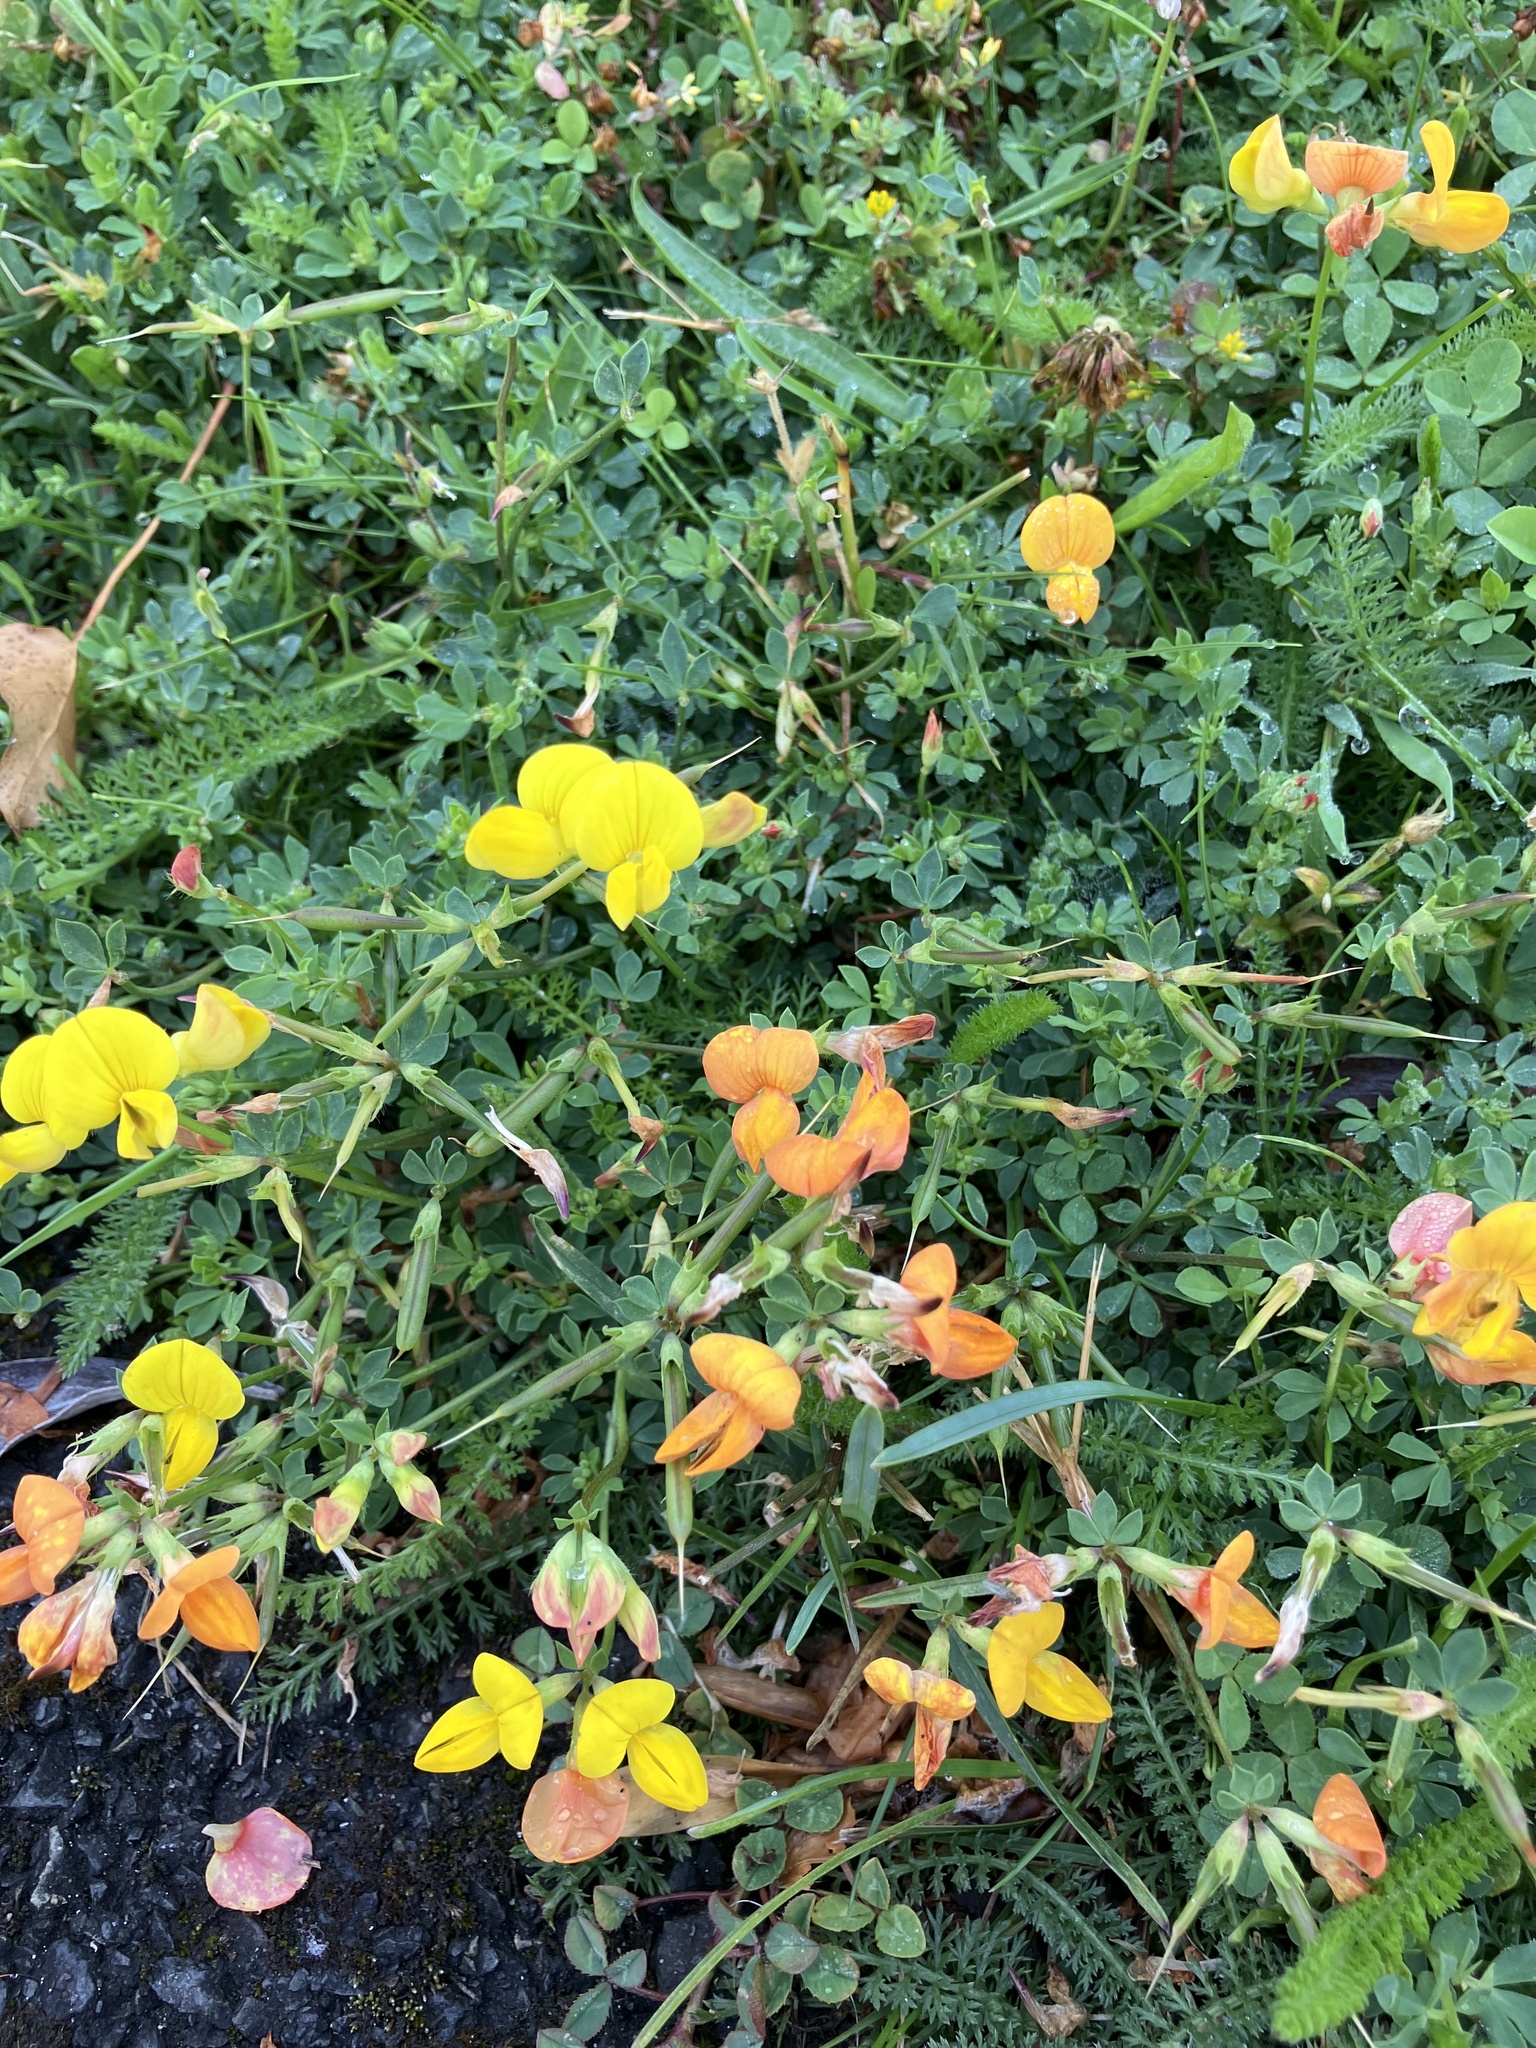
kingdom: Plantae
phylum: Tracheophyta
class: Magnoliopsida
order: Fabales
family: Fabaceae
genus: Lotus
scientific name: Lotus corniculatus
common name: Common bird's-foot-trefoil
